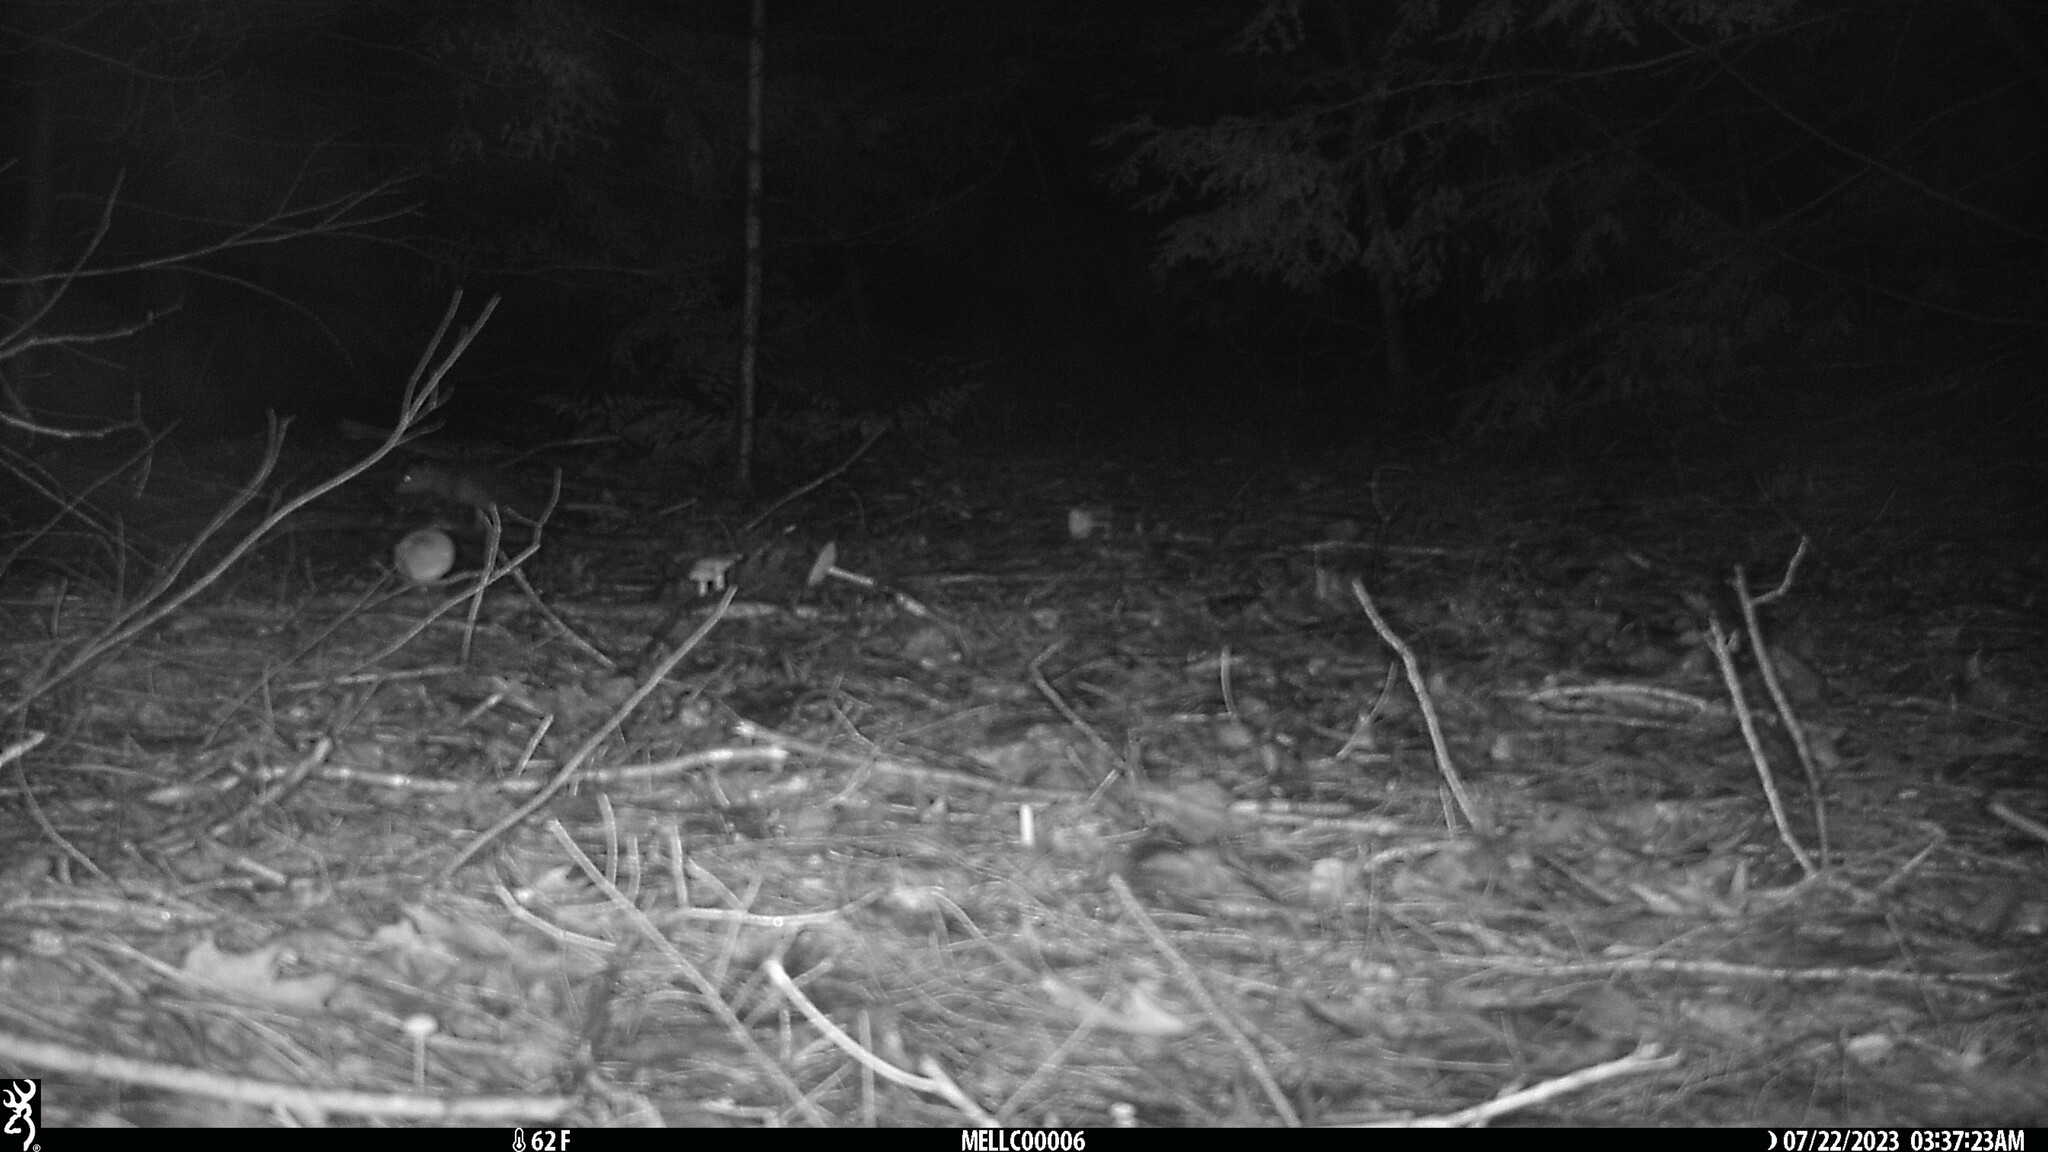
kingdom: Animalia
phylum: Chordata
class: Mammalia
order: Didelphimorphia
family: Didelphidae
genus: Didelphis
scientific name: Didelphis virginiana
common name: Virginia opossum
